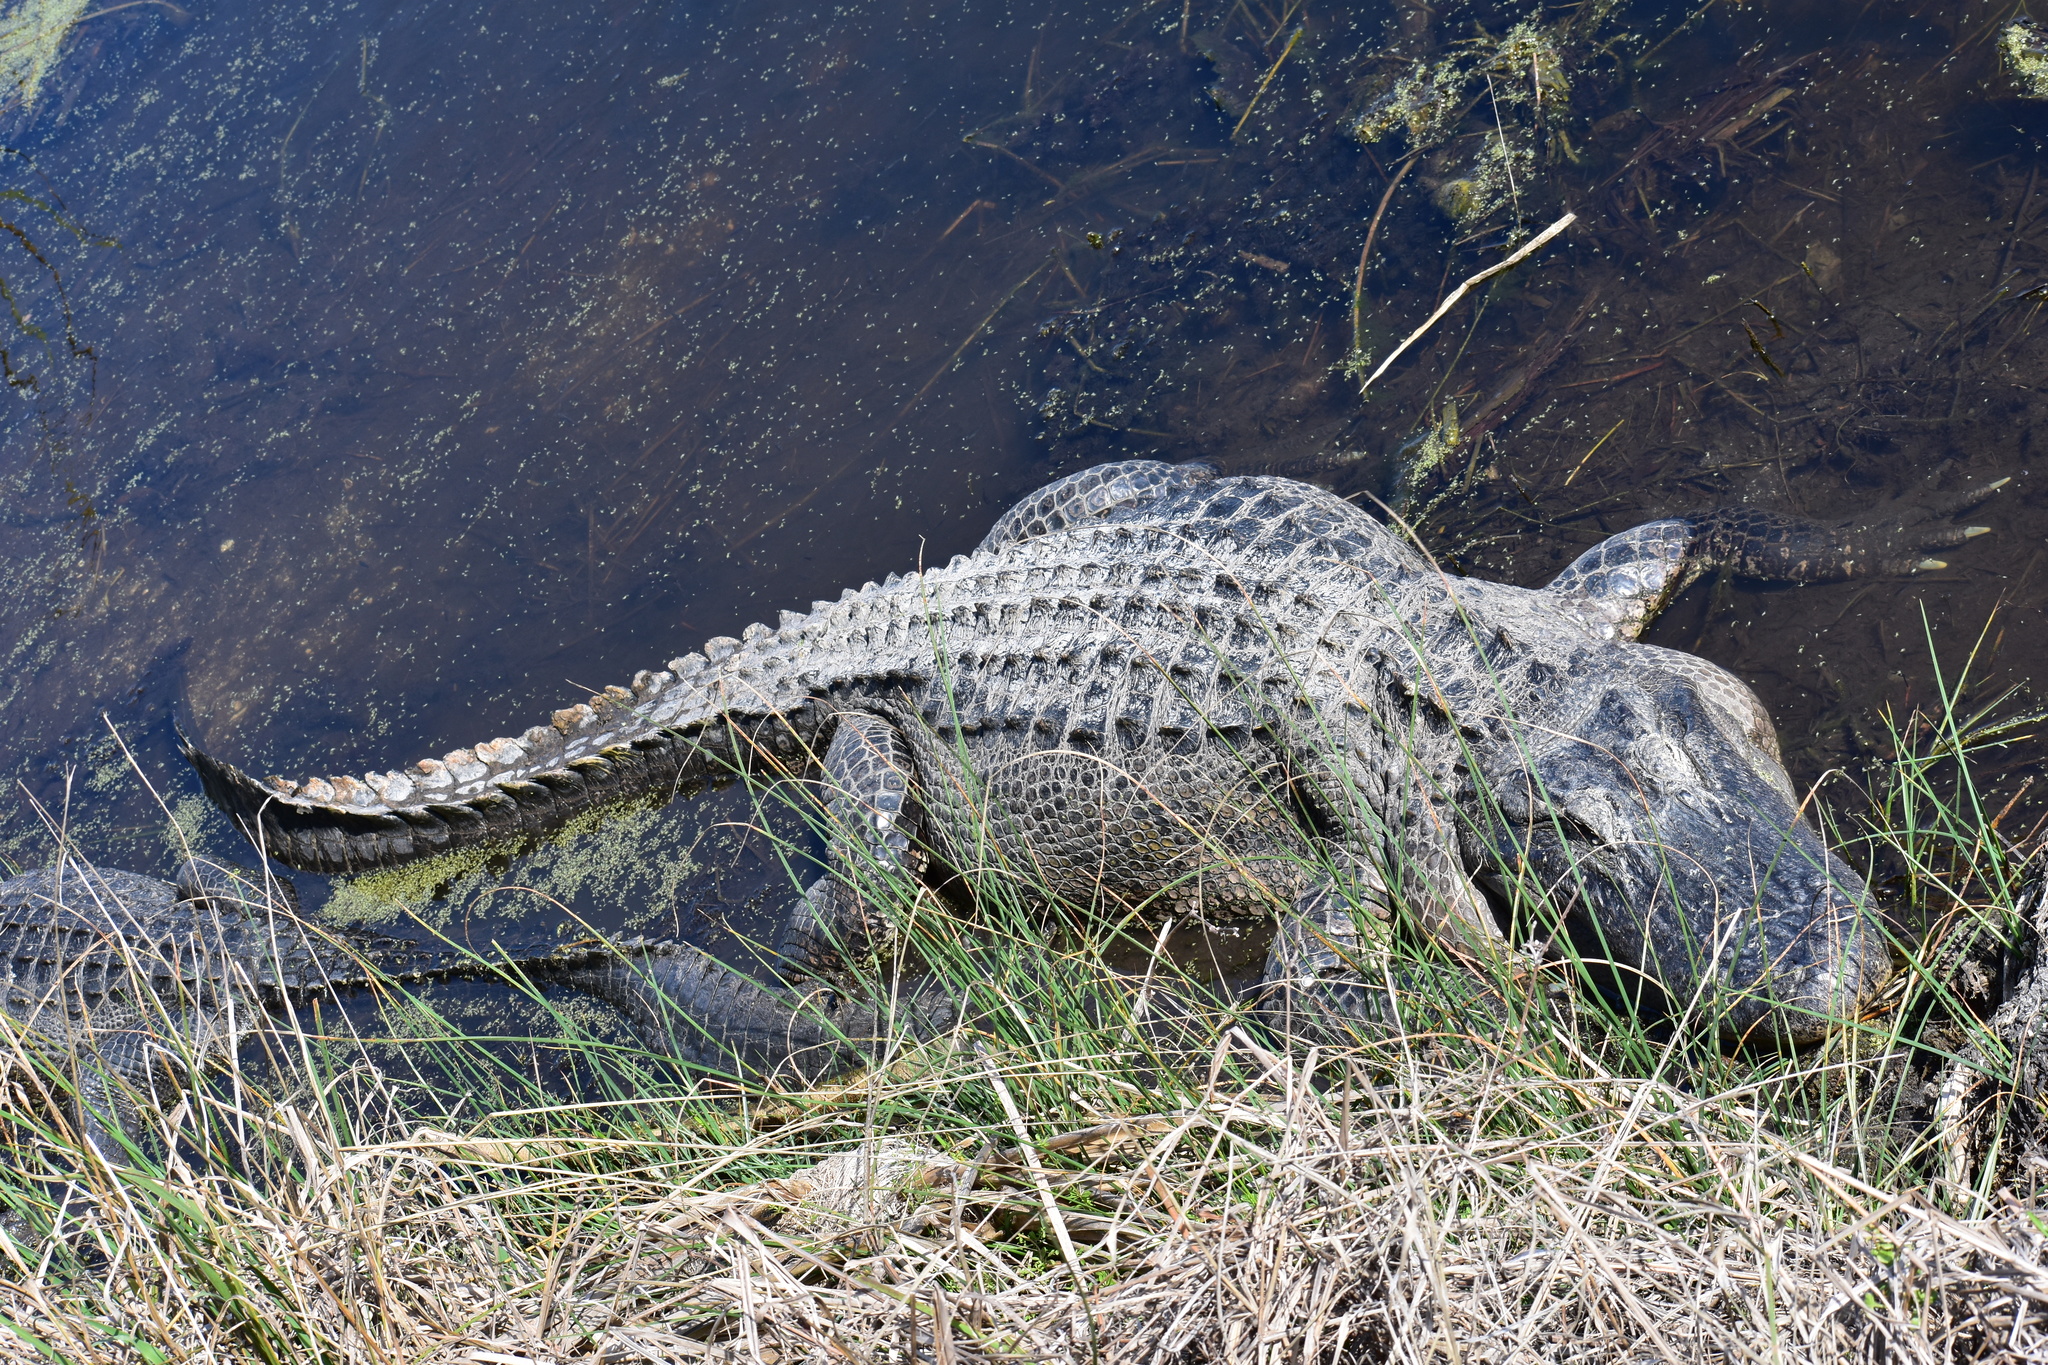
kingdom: Animalia
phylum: Chordata
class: Crocodylia
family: Alligatoridae
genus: Alligator
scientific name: Alligator mississippiensis
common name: American alligator
